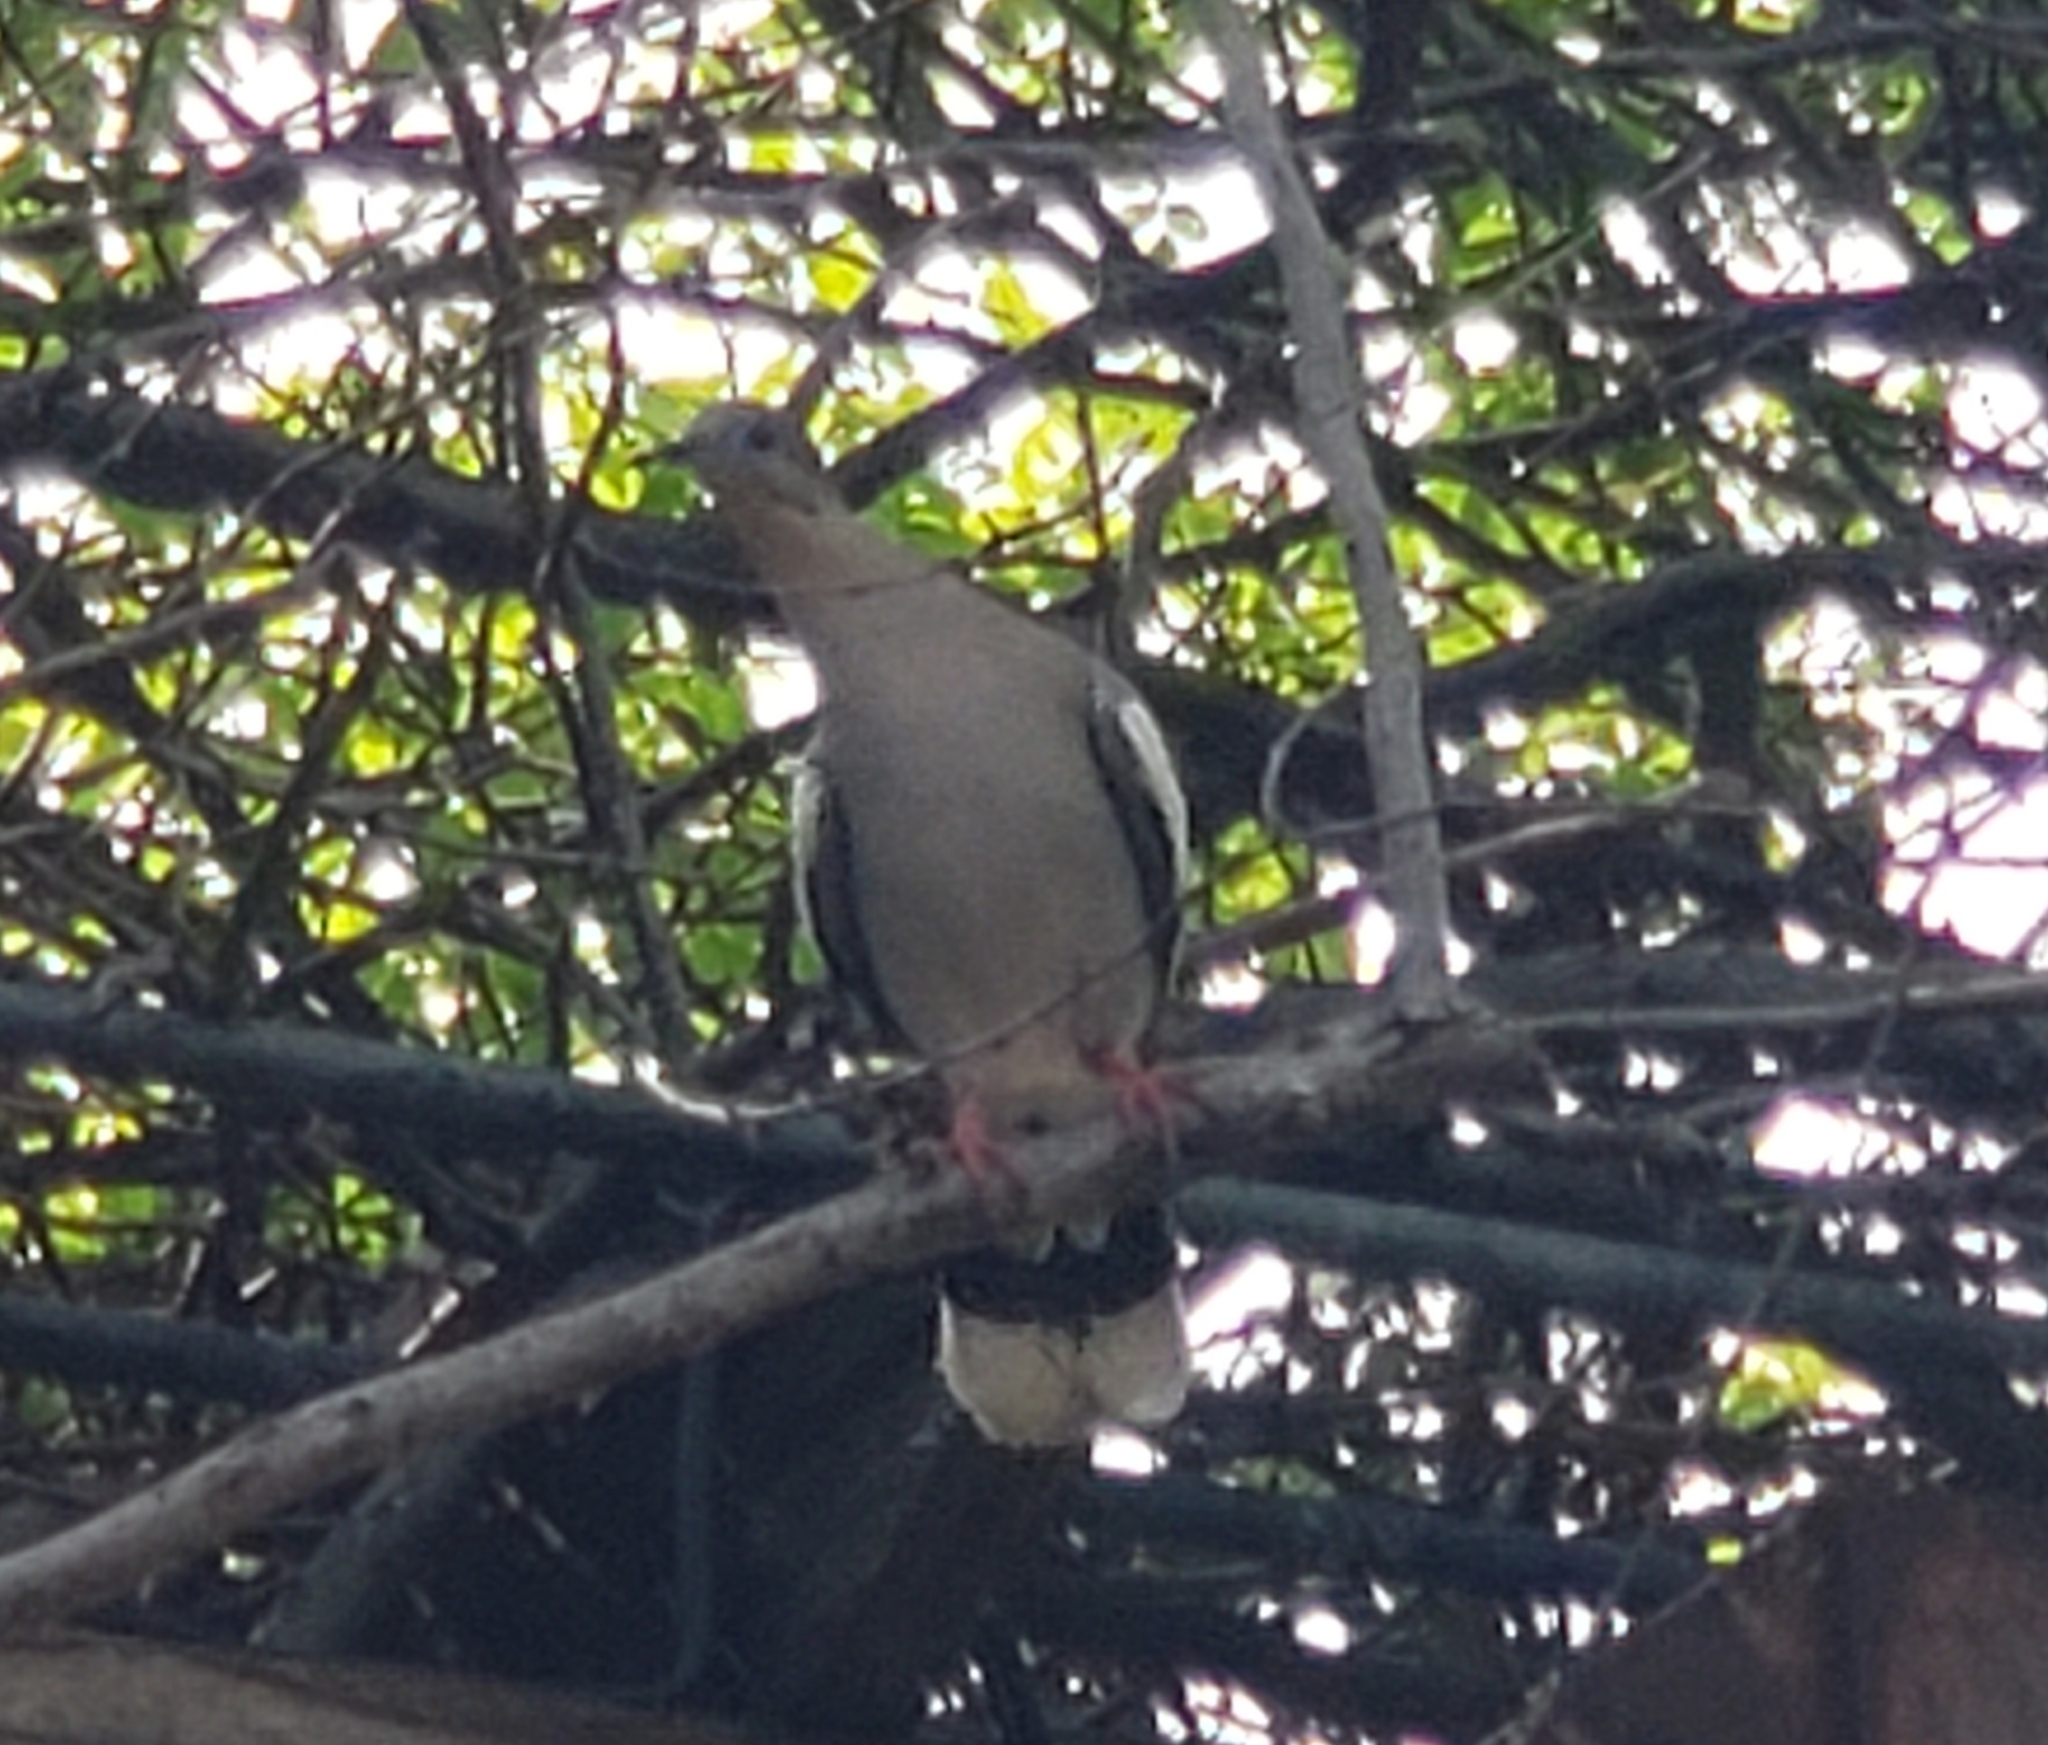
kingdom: Animalia
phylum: Chordata
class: Aves
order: Columbiformes
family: Columbidae
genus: Zenaida
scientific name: Zenaida asiatica
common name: White-winged dove
